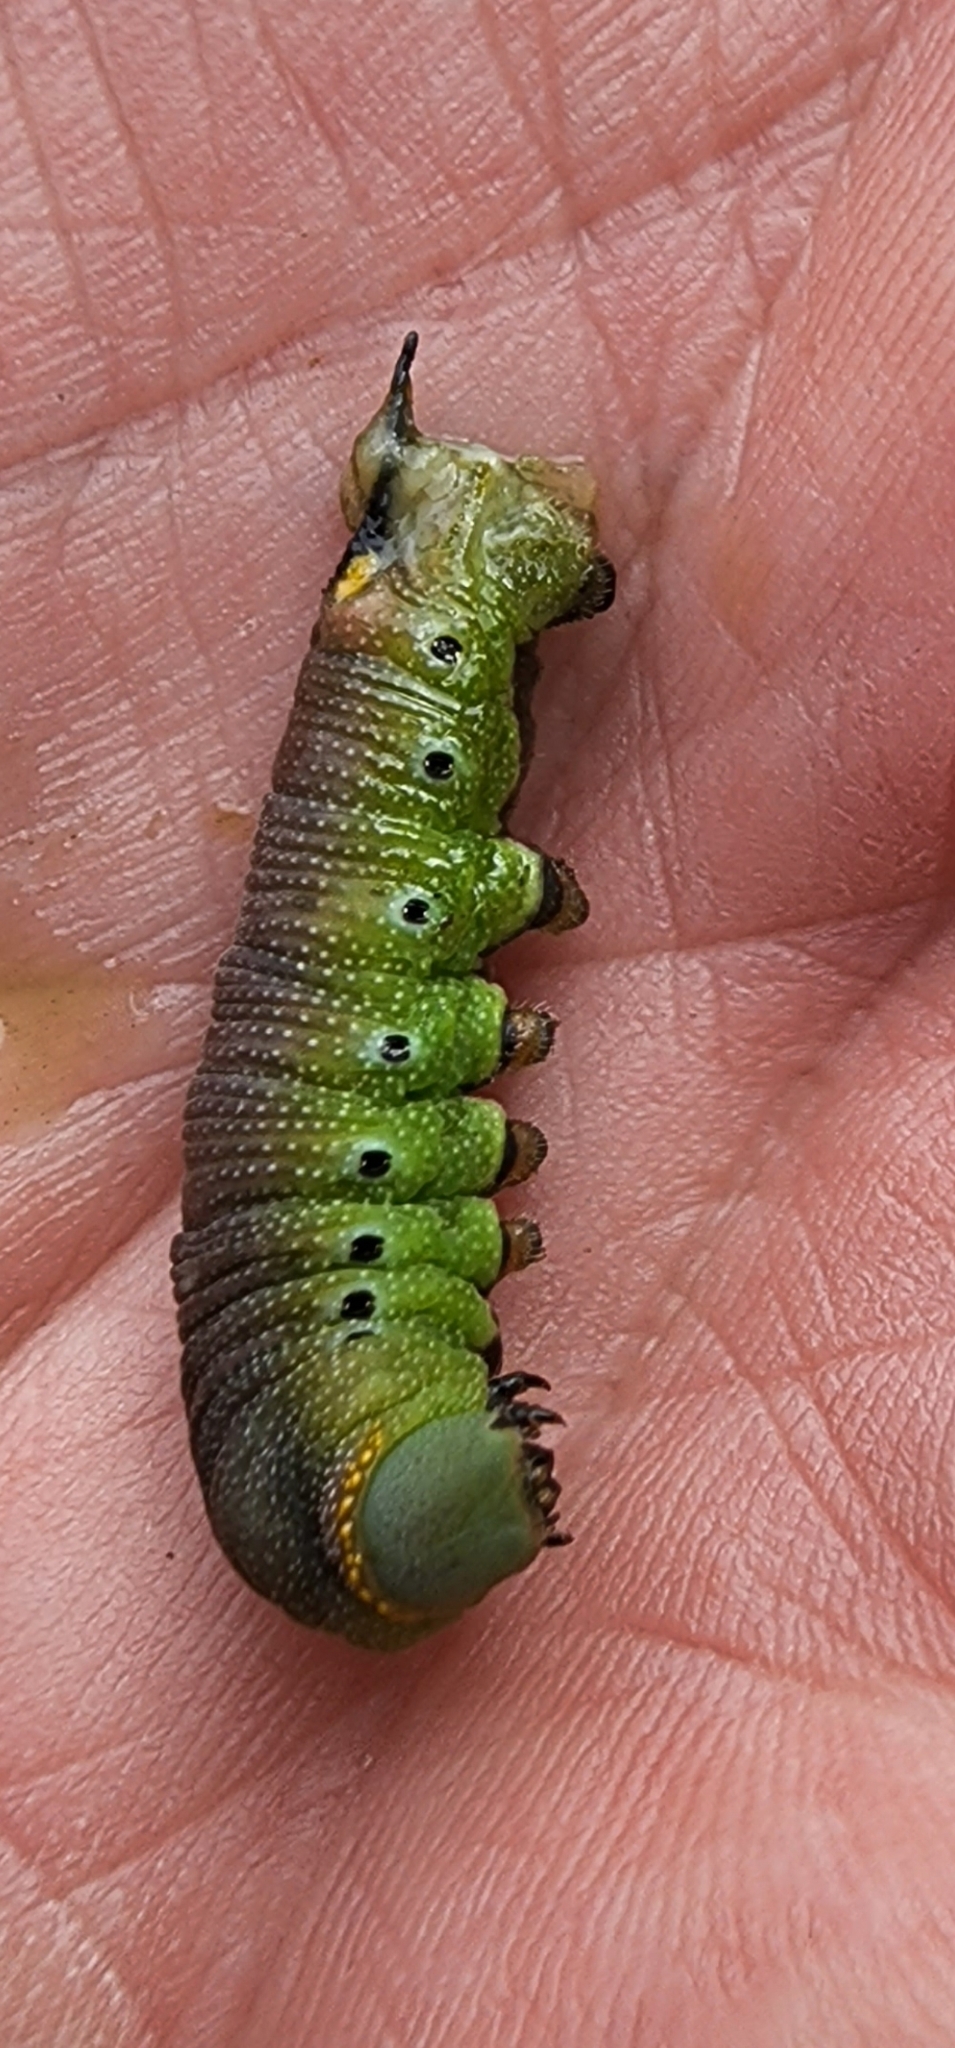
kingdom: Animalia
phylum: Arthropoda
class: Insecta
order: Lepidoptera
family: Sphingidae
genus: Hemaris
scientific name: Hemaris diffinis
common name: Bumblebee moth
